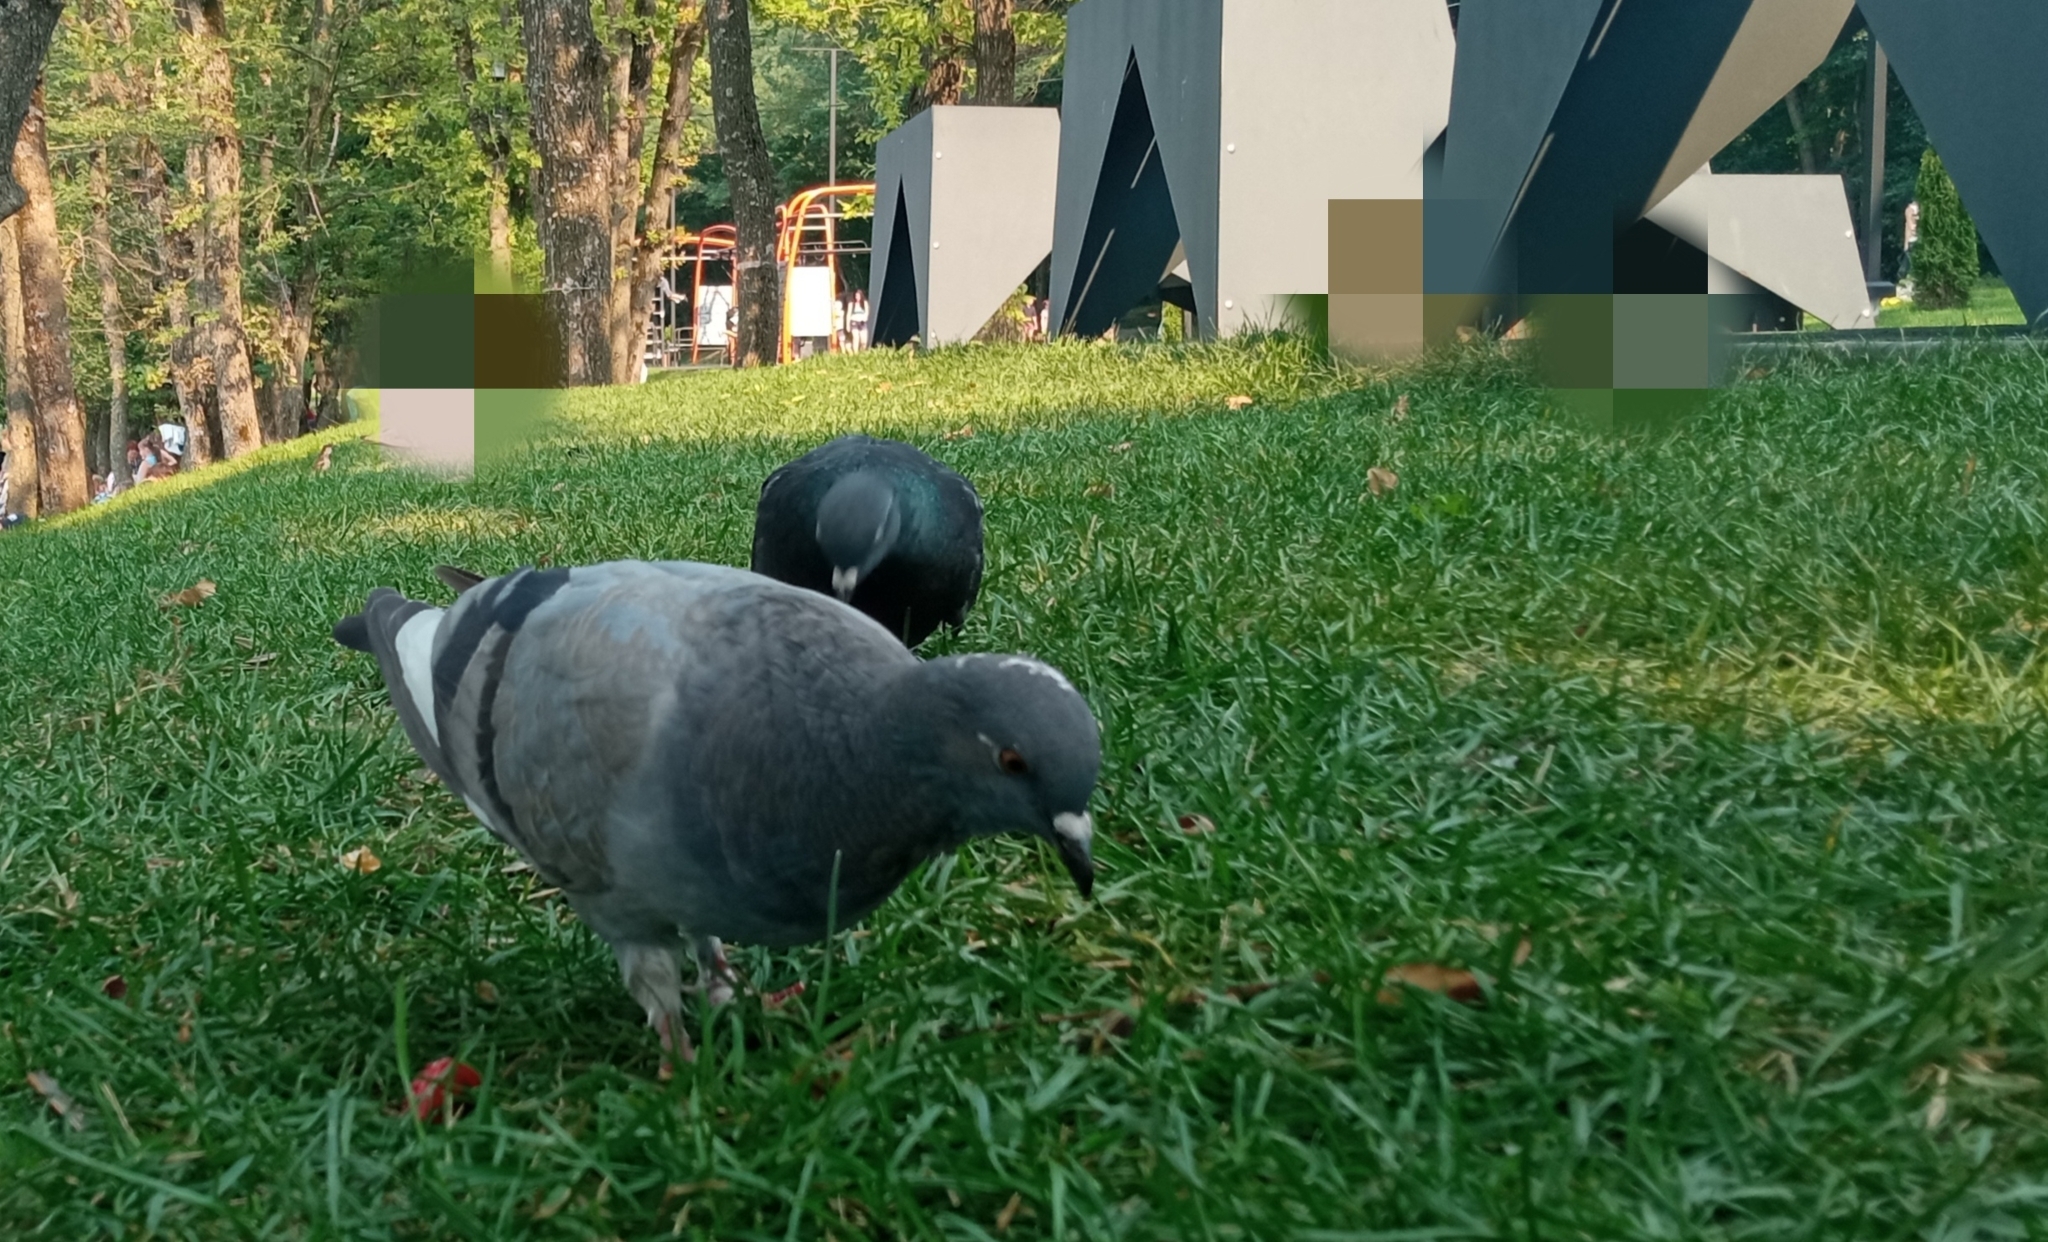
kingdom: Animalia
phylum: Chordata
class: Aves
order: Columbiformes
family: Columbidae
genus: Columba
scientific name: Columba livia
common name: Rock pigeon
